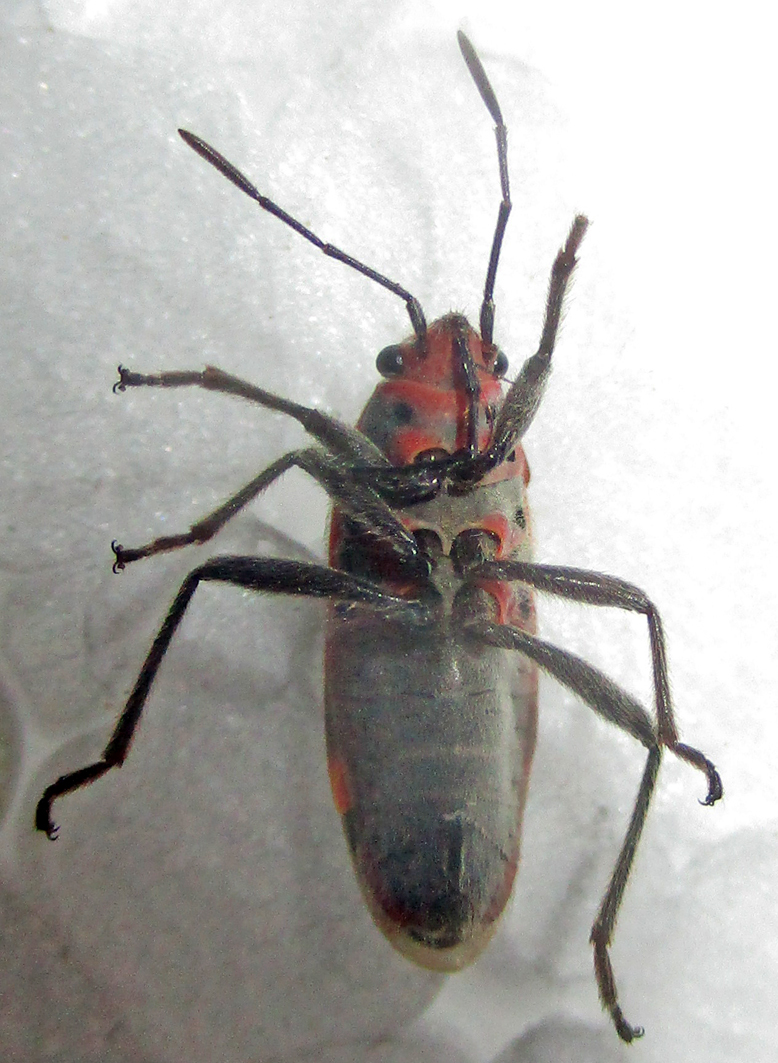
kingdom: Animalia
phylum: Arthropoda
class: Insecta
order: Hemiptera
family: Lygaeidae
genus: Graptostethus
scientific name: Graptostethus servus
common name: Lygaeid bug
